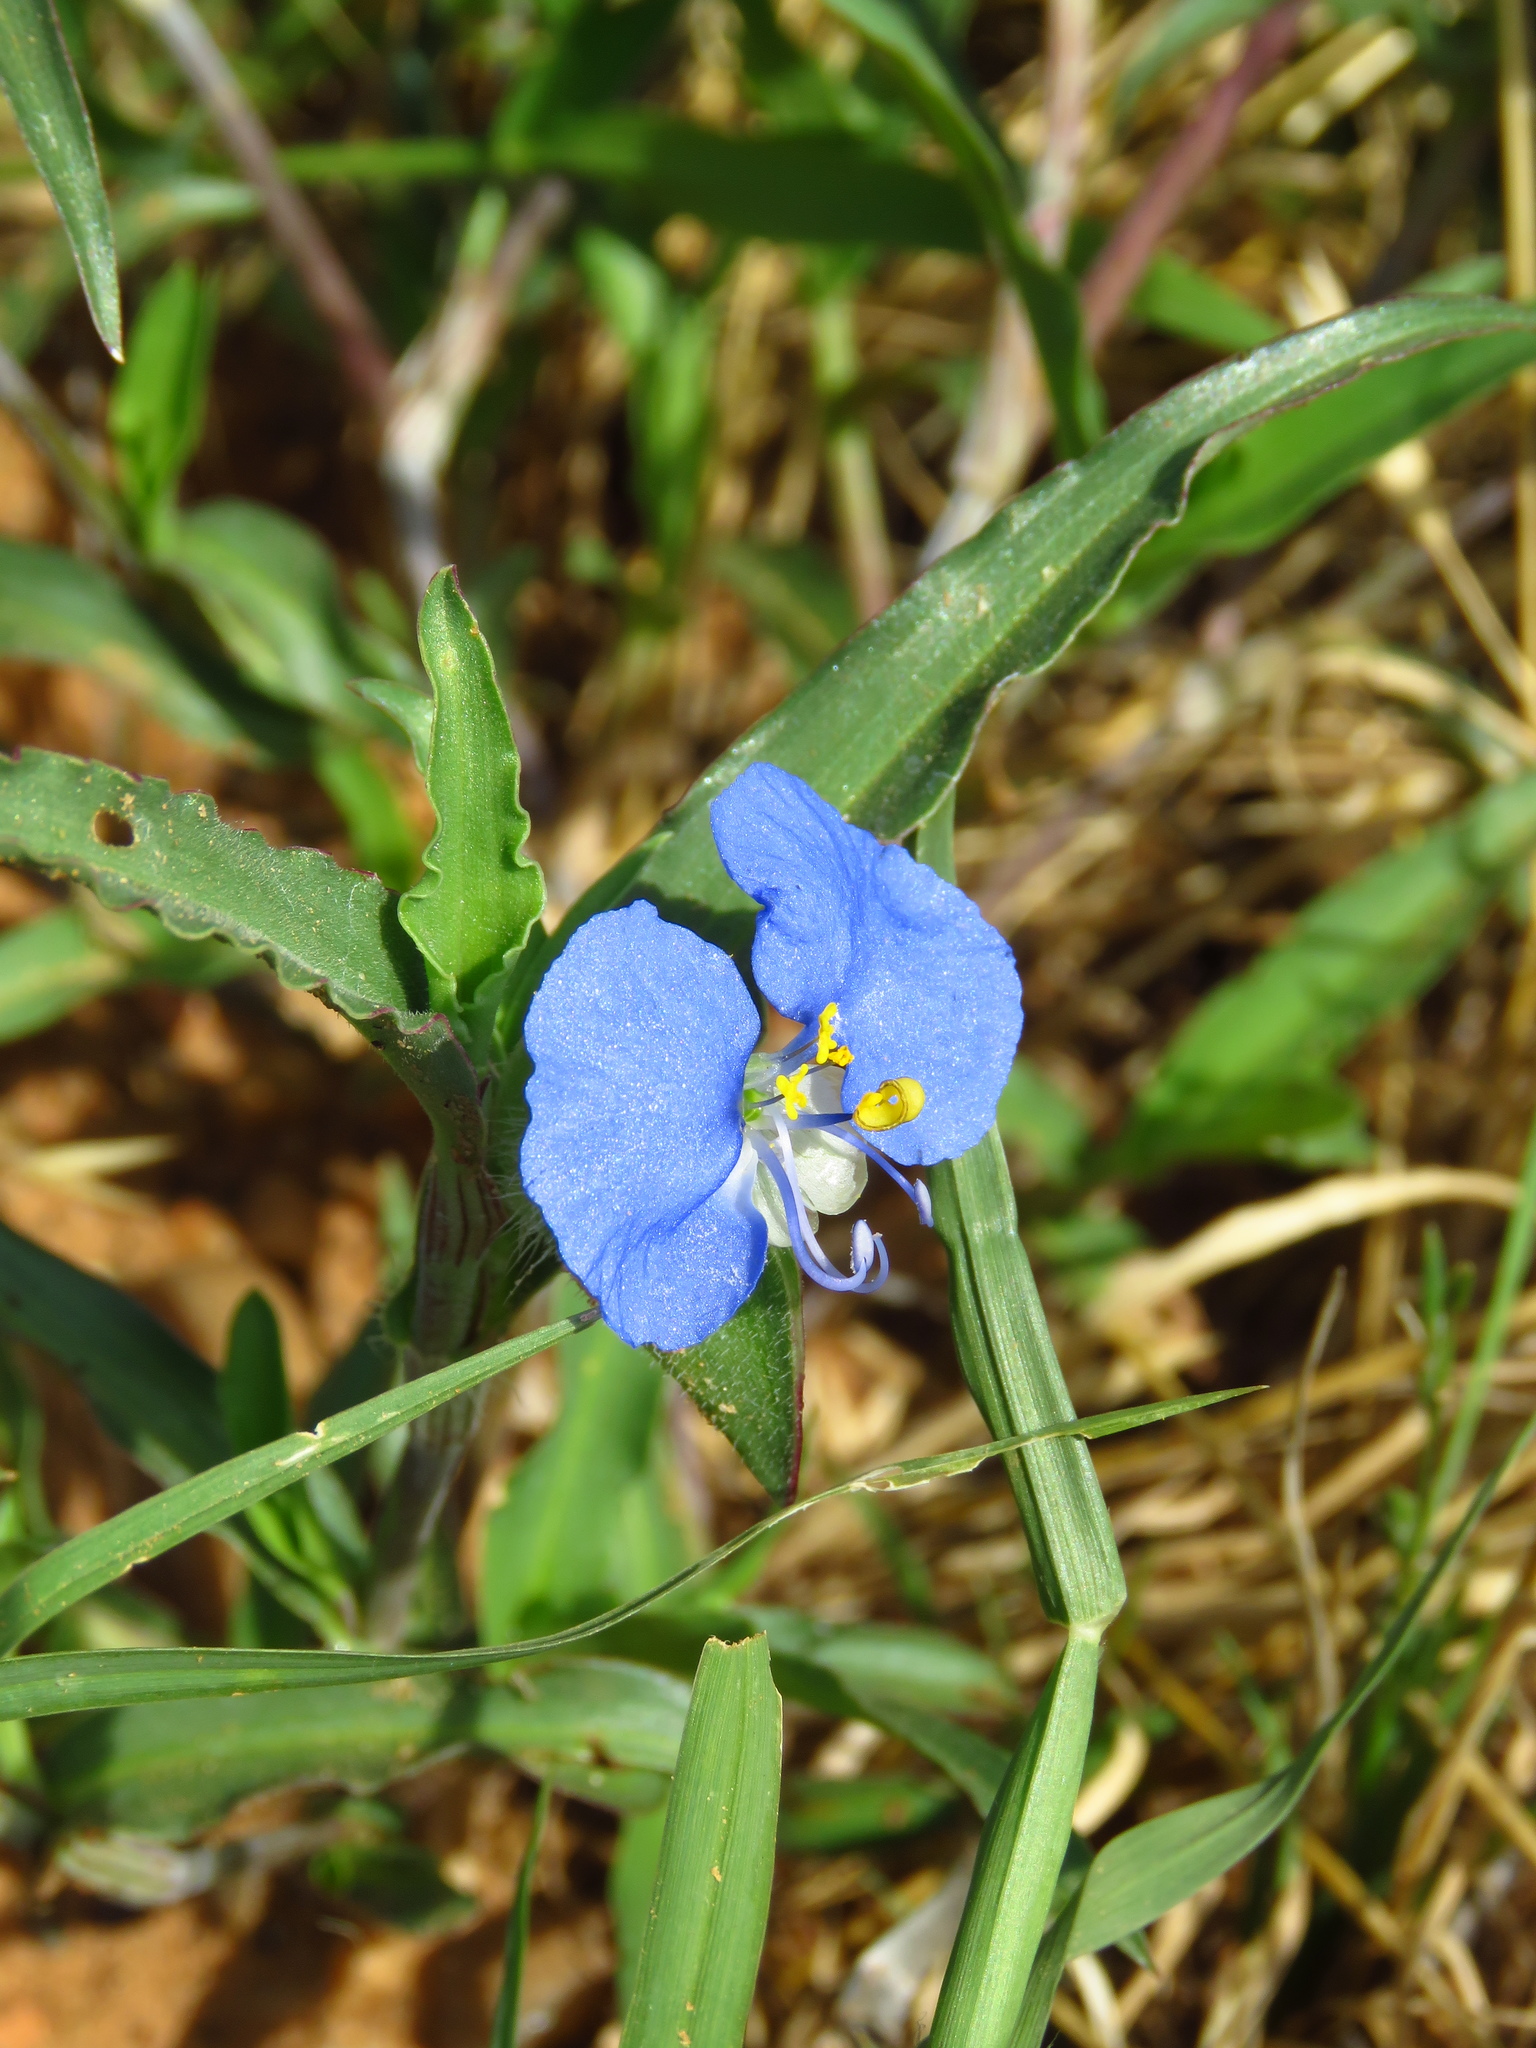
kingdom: Plantae
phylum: Tracheophyta
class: Liliopsida
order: Commelinales
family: Commelinaceae
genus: Commelina
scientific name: Commelina erecta
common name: Blousel blommetjie
